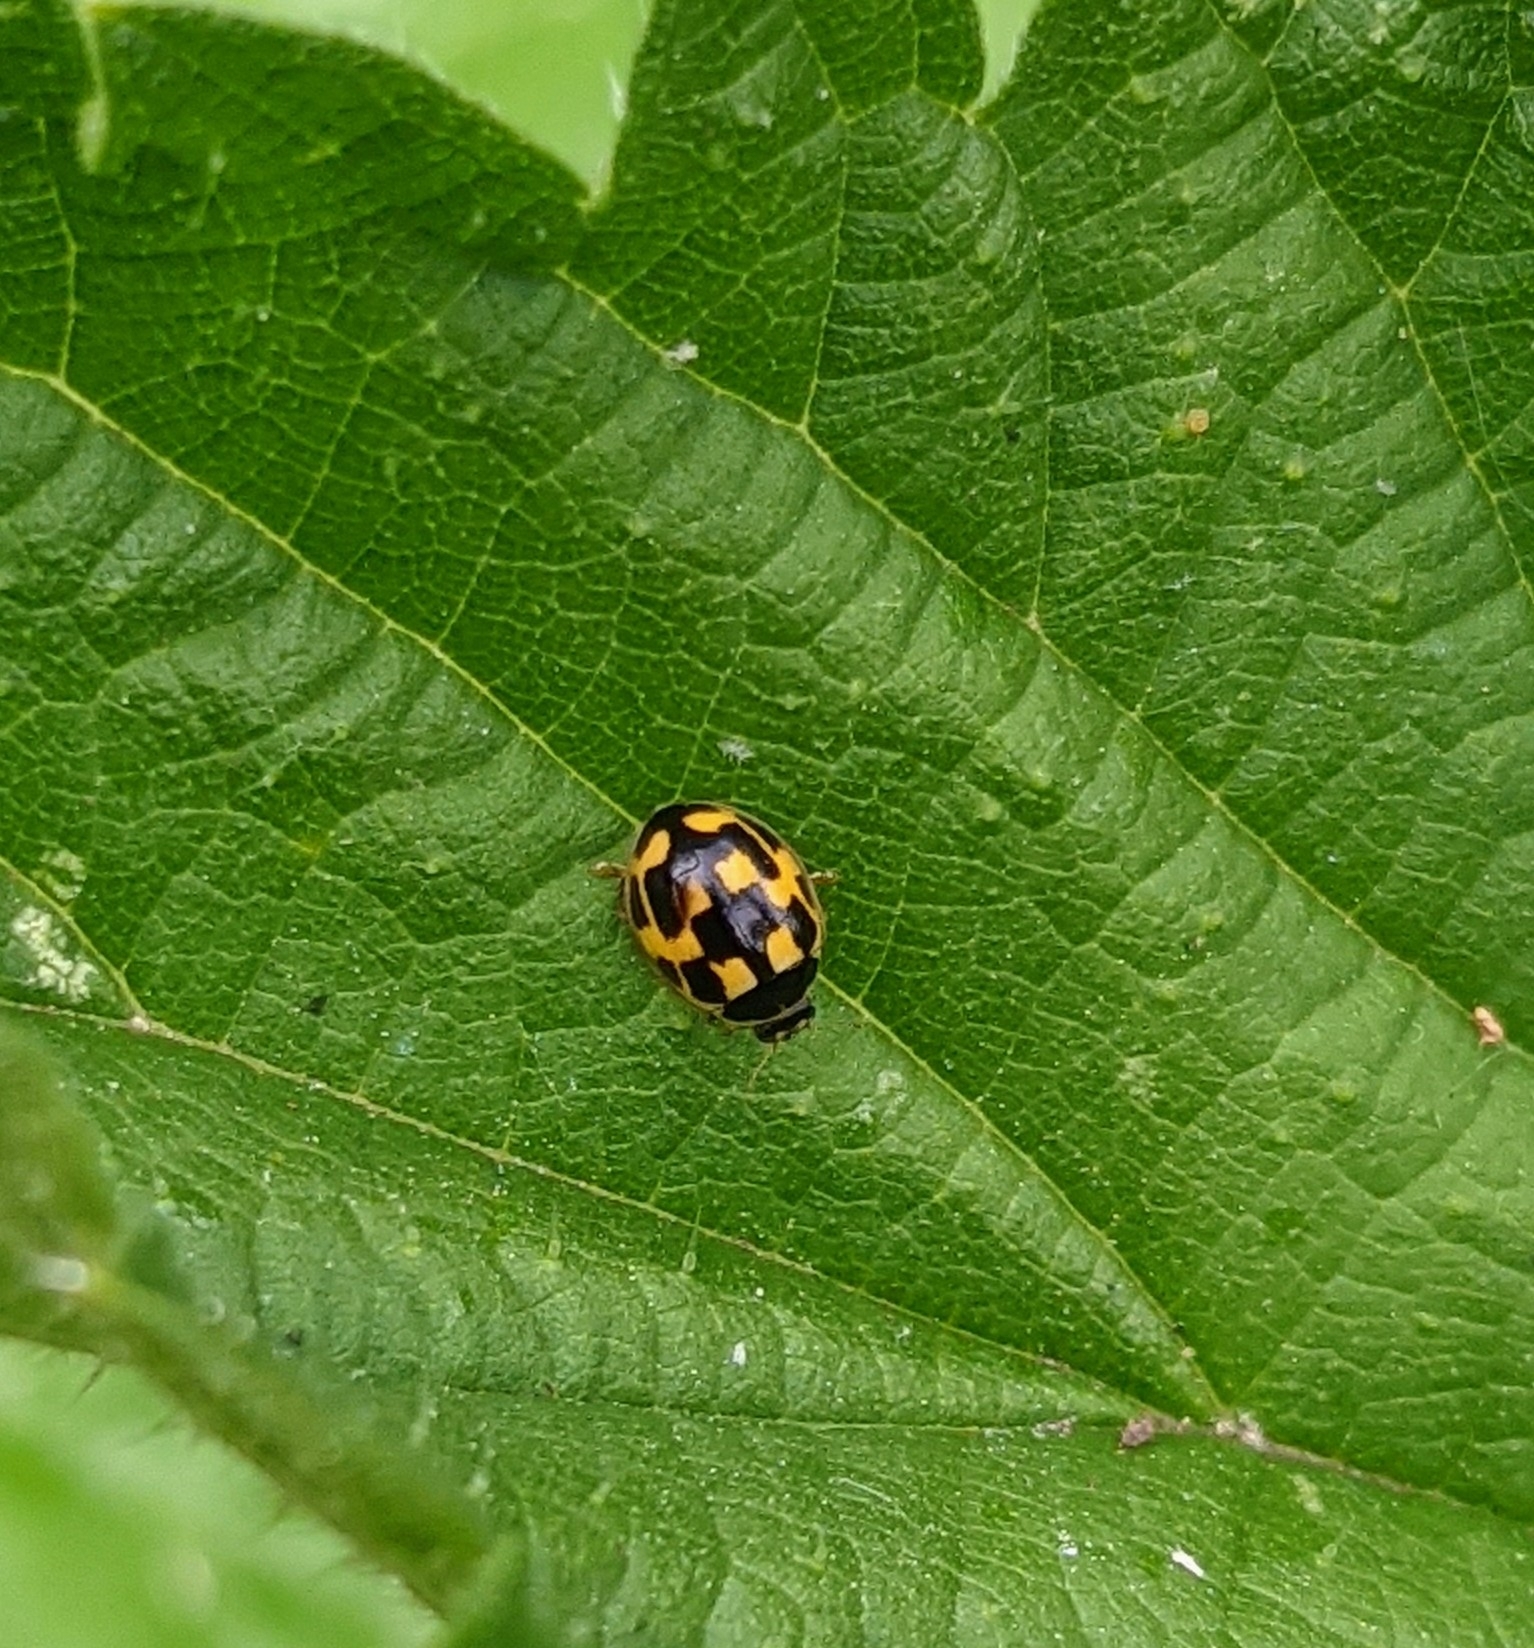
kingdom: Animalia
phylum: Arthropoda
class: Insecta
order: Coleoptera
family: Coccinellidae
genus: Propylaea
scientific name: Propylaea quatuordecimpunctata
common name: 14-spotted ladybird beetle
